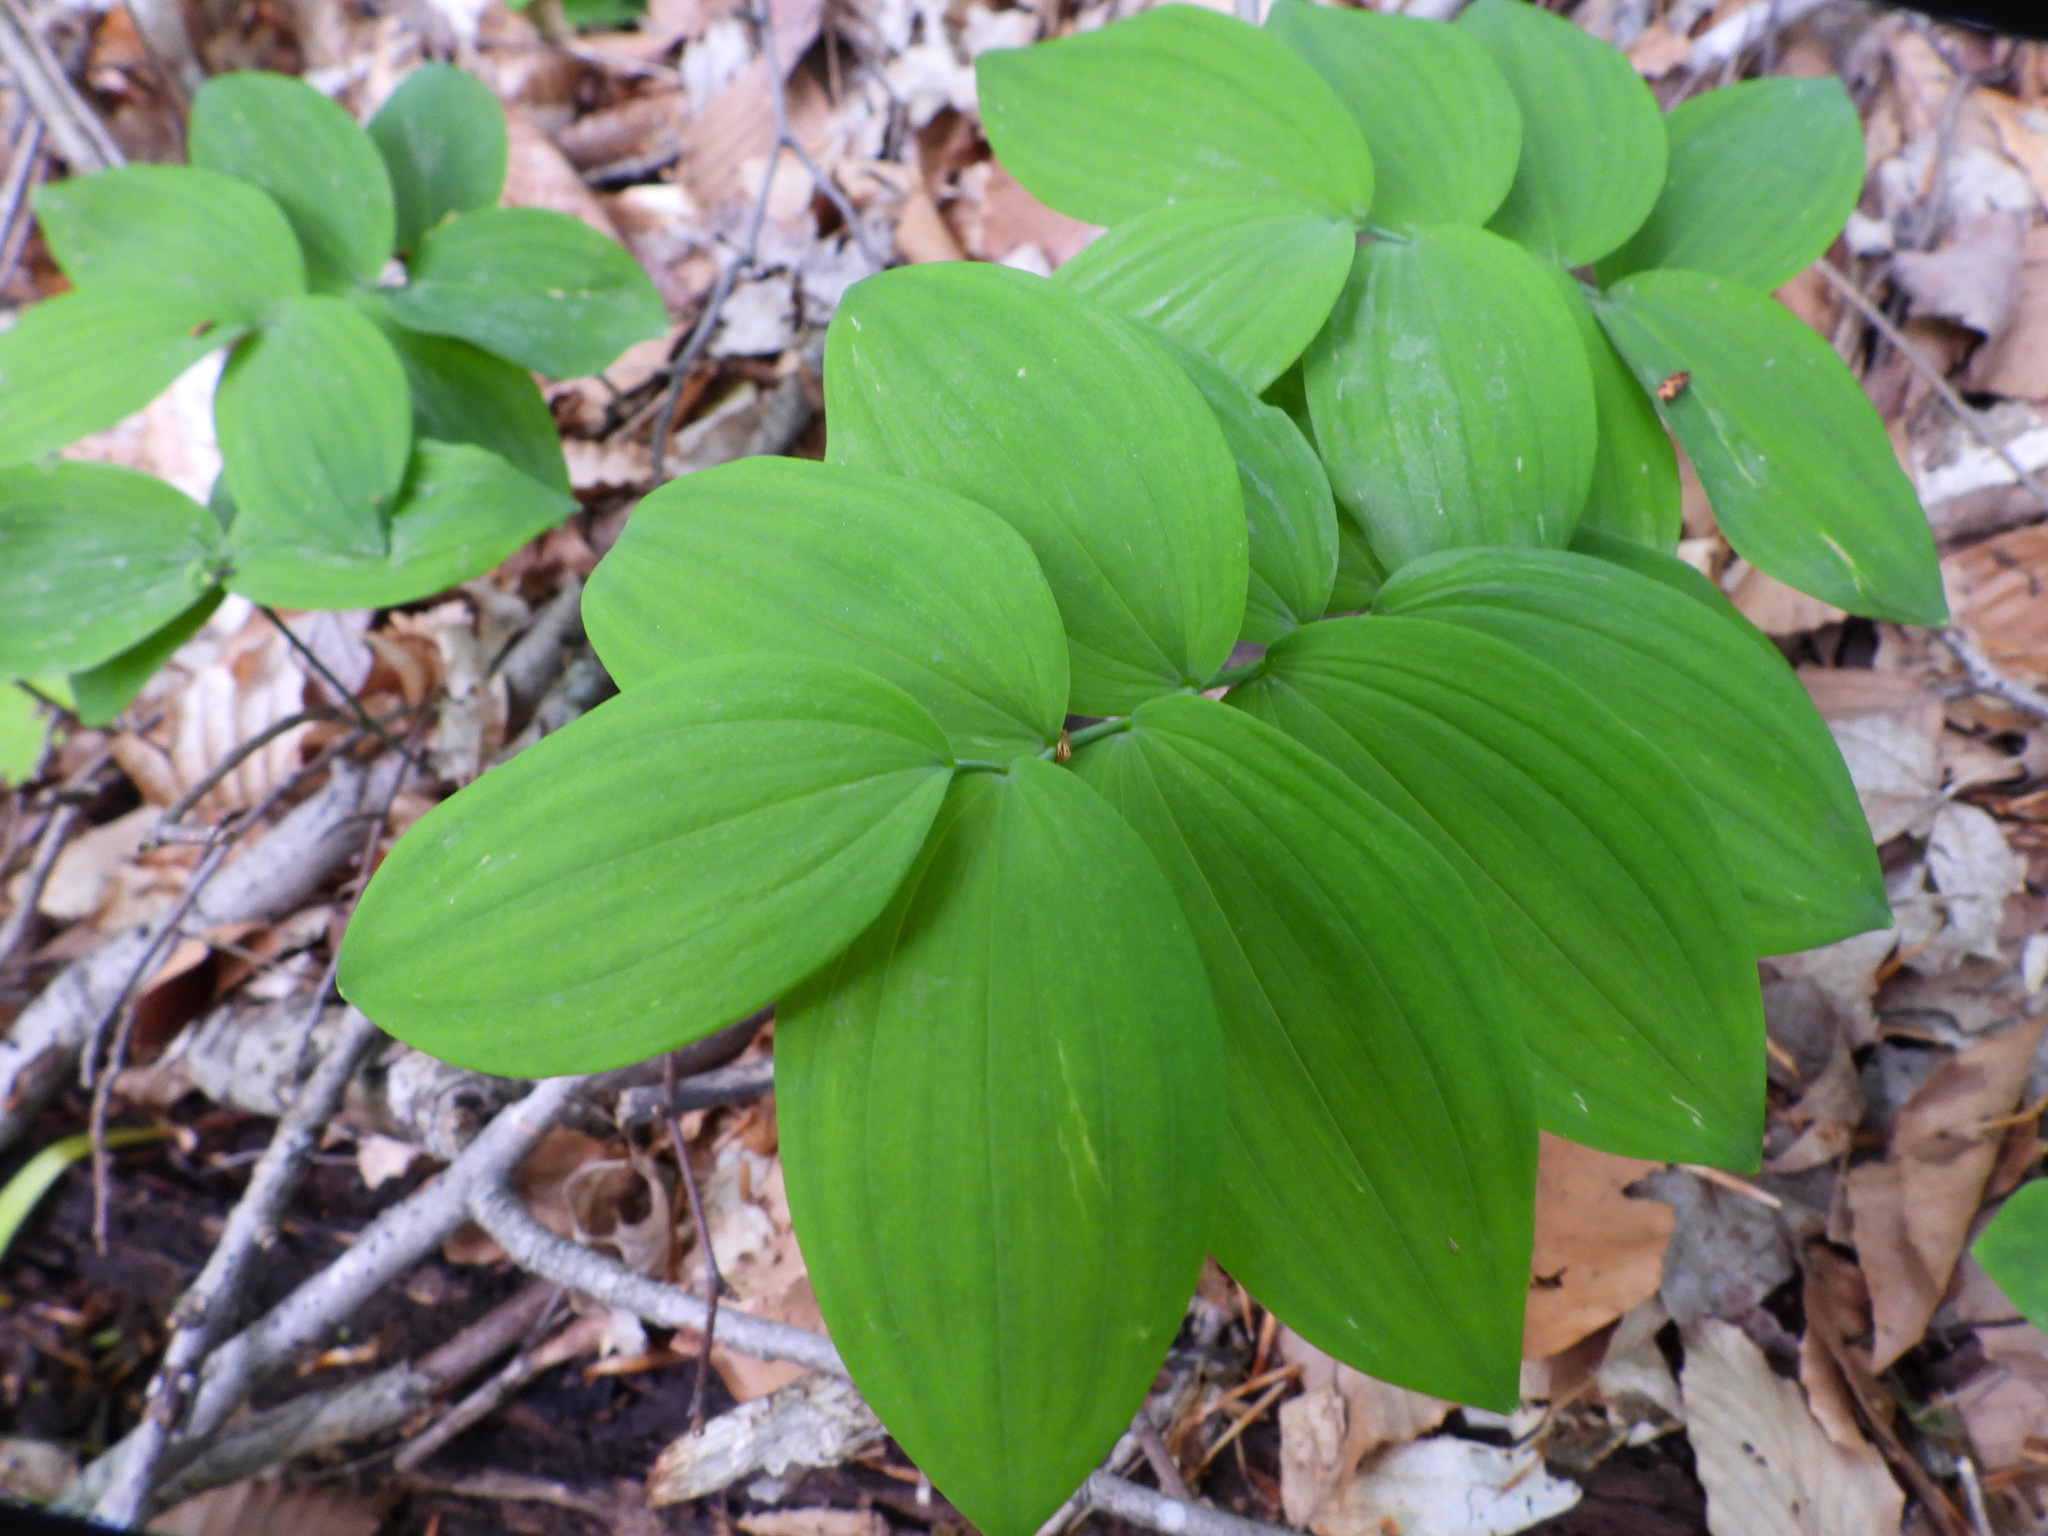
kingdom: Plantae
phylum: Tracheophyta
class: Liliopsida
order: Asparagales
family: Asparagaceae
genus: Polygonatum
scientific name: Polygonatum
